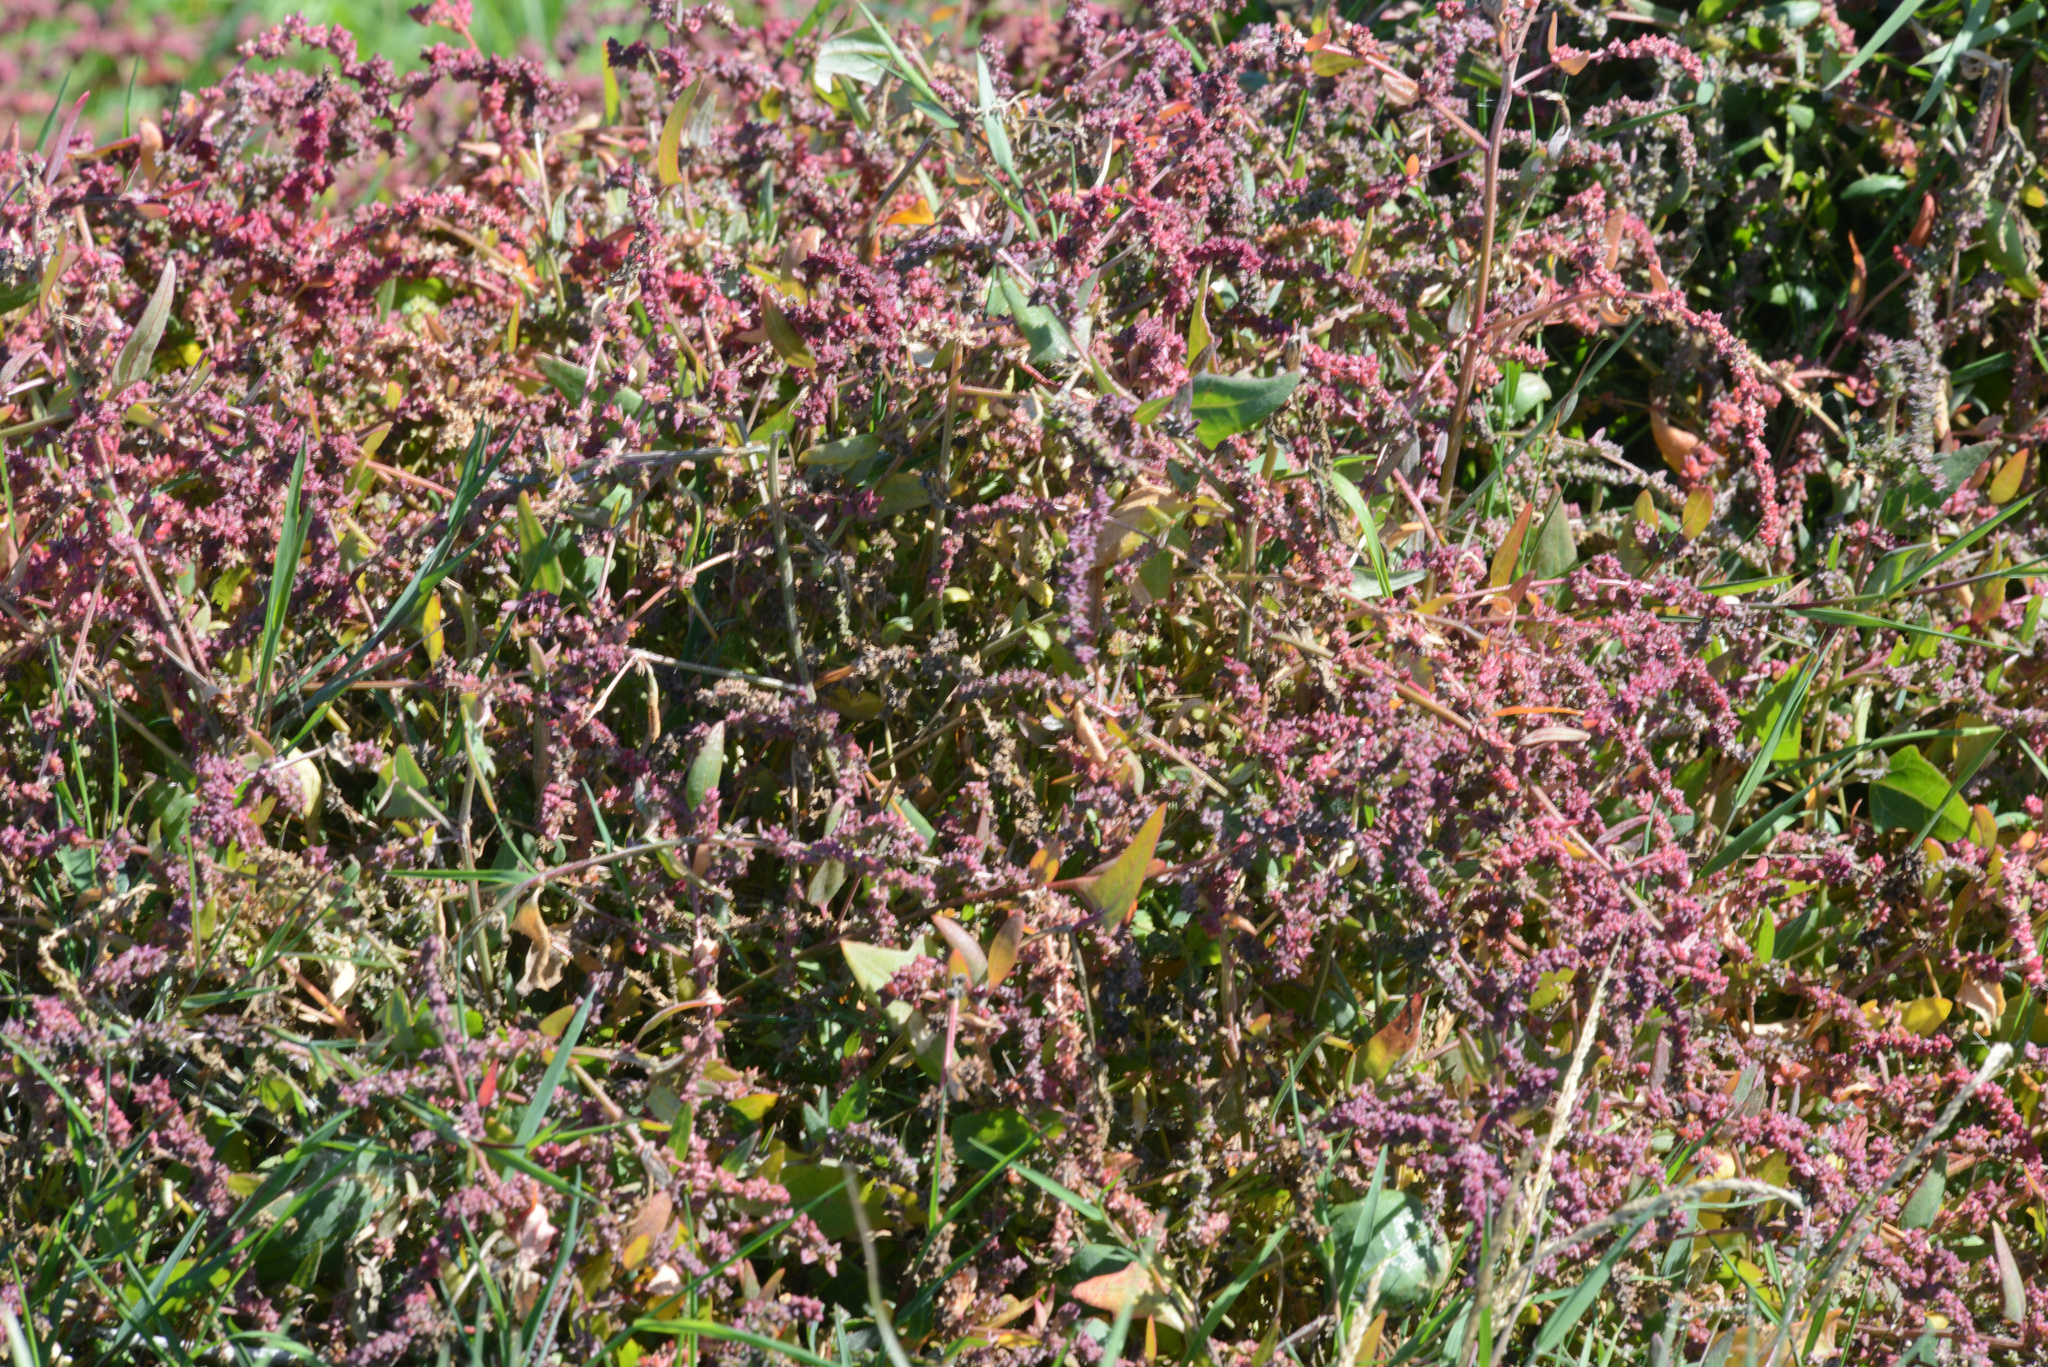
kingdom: Plantae
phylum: Tracheophyta
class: Magnoliopsida
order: Caryophyllales
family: Amaranthaceae
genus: Atriplex
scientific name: Atriplex prostrata
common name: Spear-leaved orache
